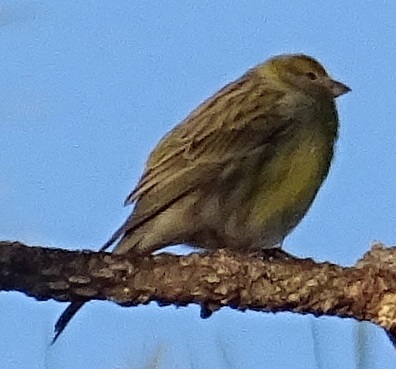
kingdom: Animalia
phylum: Chordata
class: Aves
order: Passeriformes
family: Fringillidae
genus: Serinus
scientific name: Serinus canaria
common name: Atlantic canary
